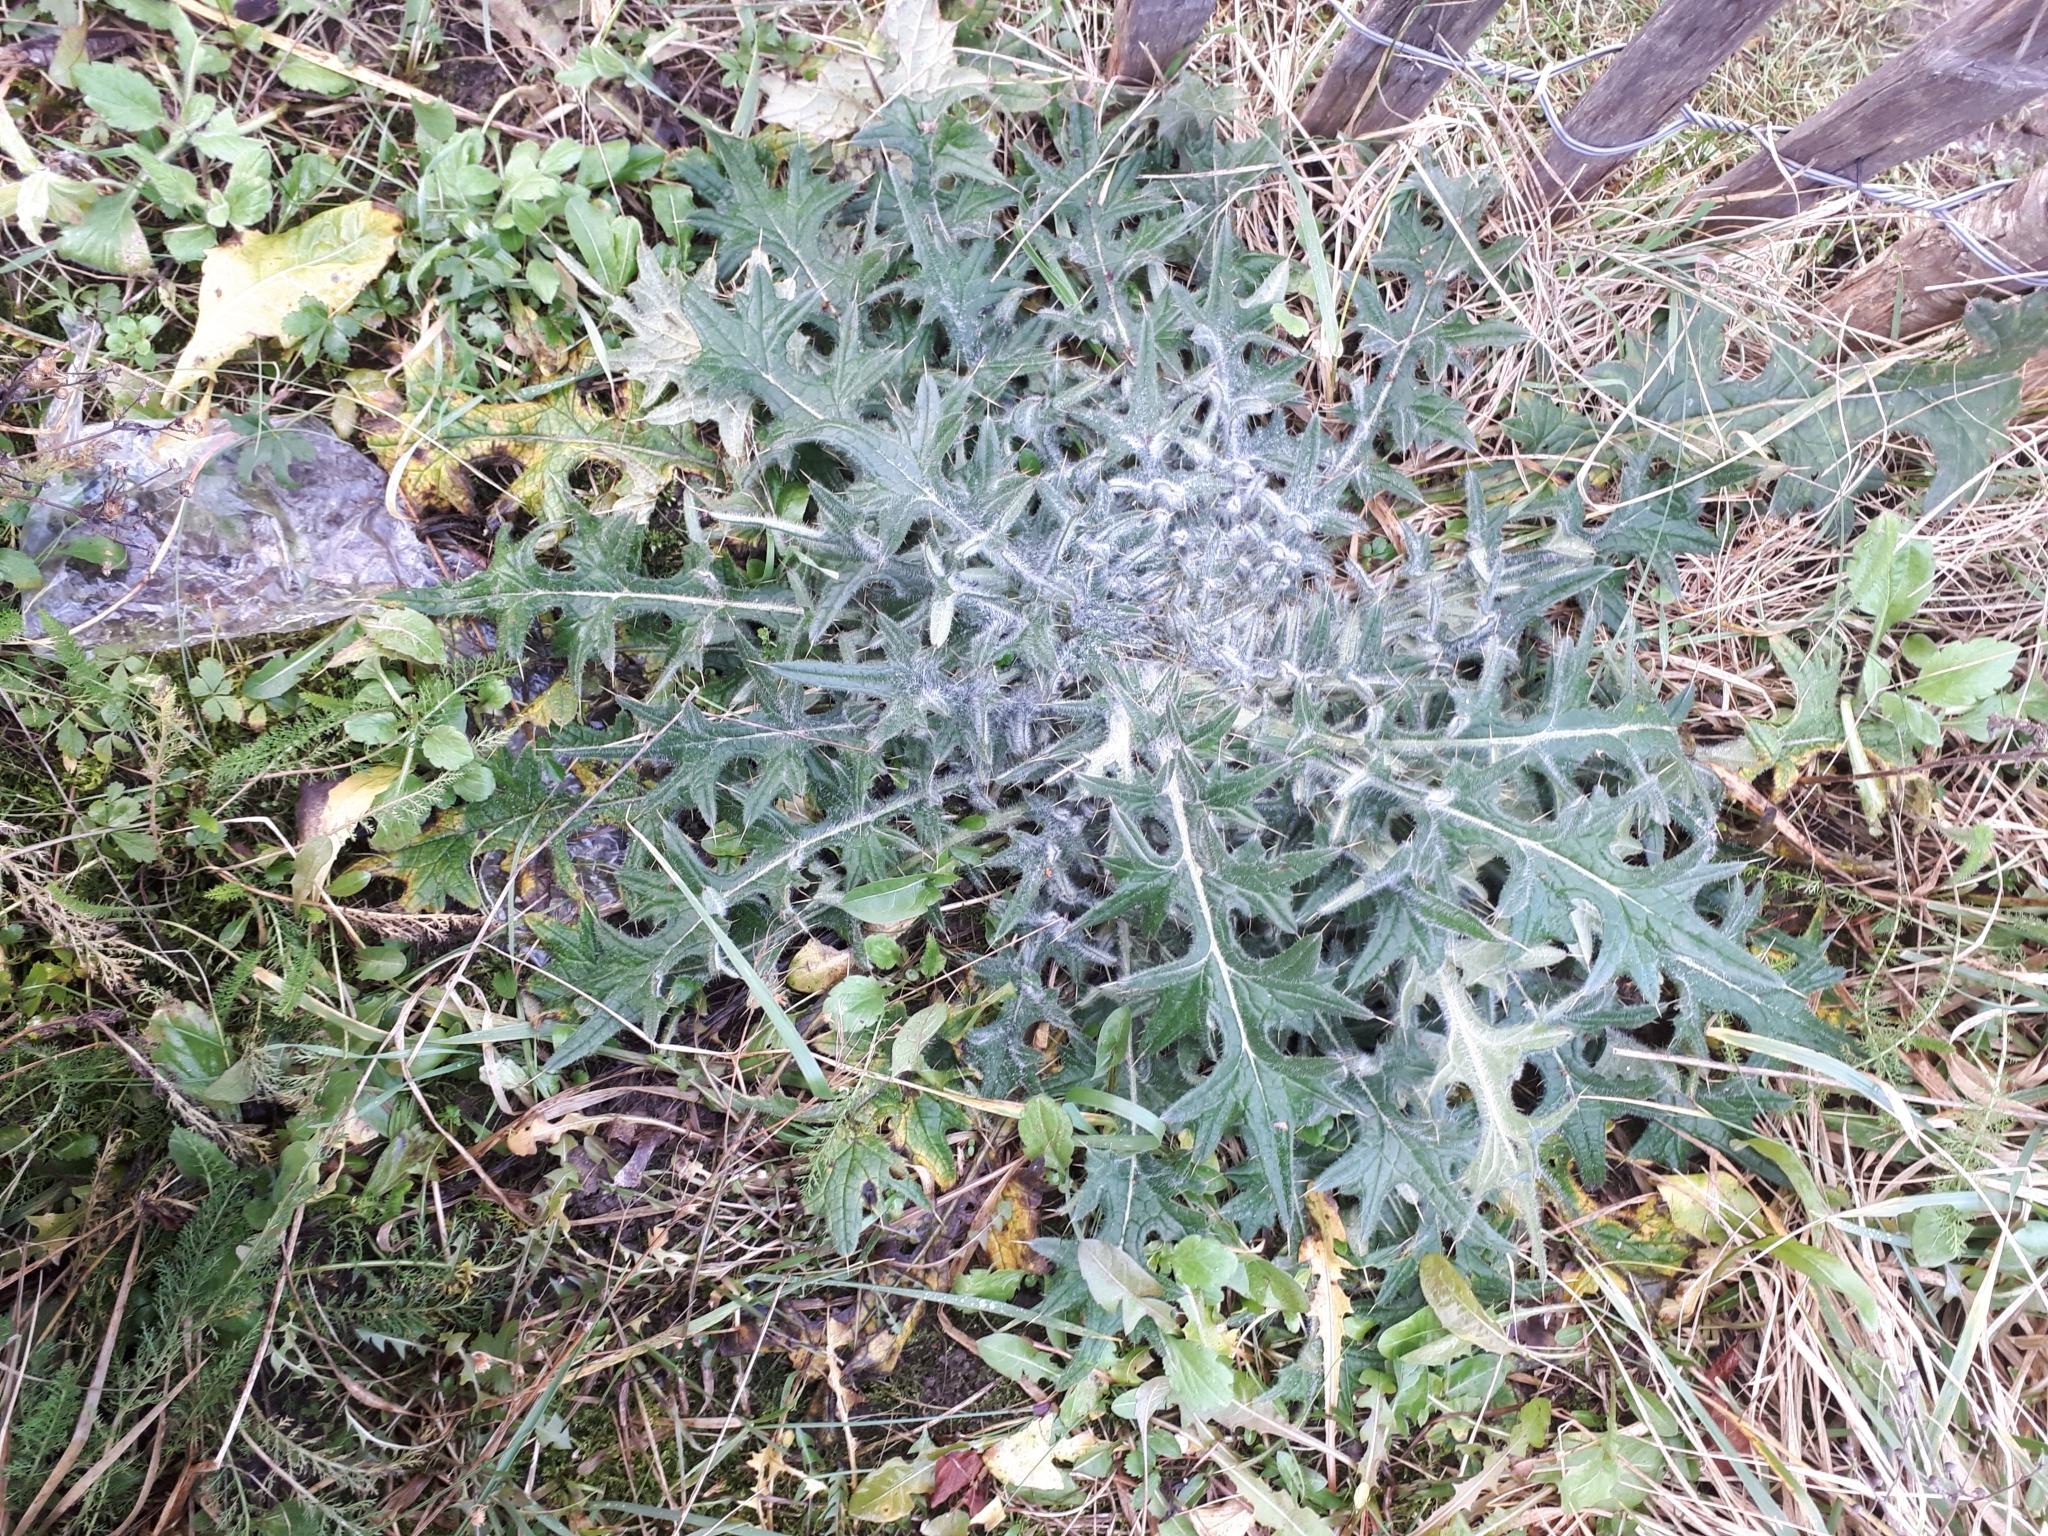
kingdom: Plantae
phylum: Tracheophyta
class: Magnoliopsida
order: Asterales
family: Asteraceae
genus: Cirsium
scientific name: Cirsium vulgare
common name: Bull thistle
